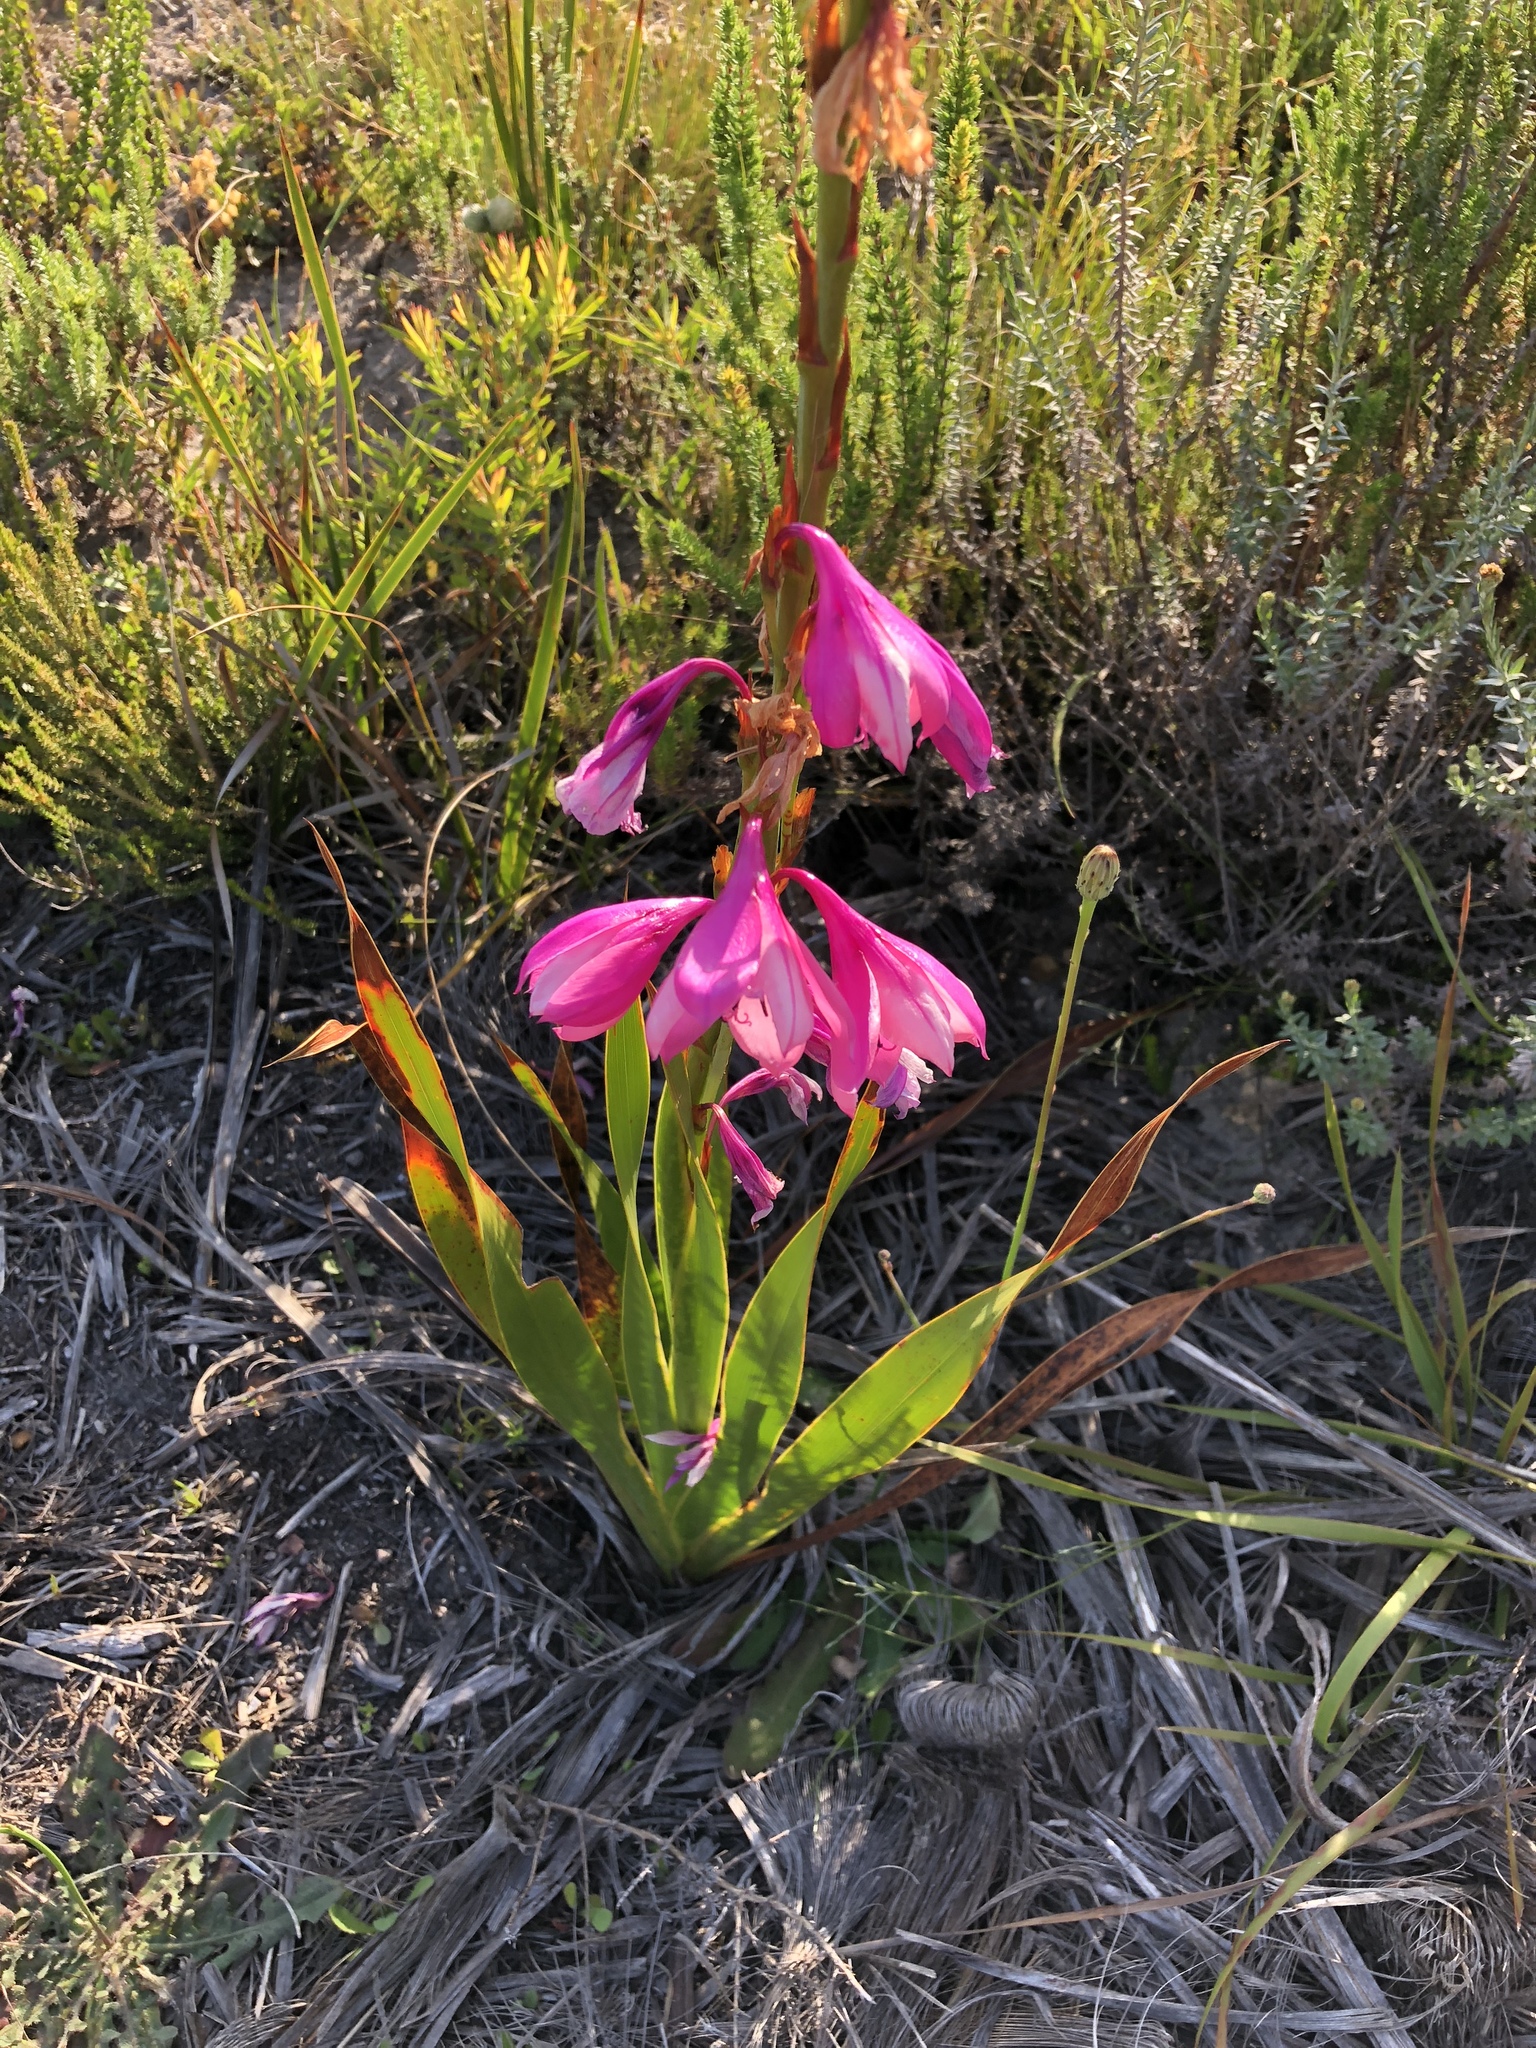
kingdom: Plantae
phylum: Tracheophyta
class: Liliopsida
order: Asparagales
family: Iridaceae
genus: Watsonia
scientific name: Watsonia borbonica
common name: Bugle-lily
